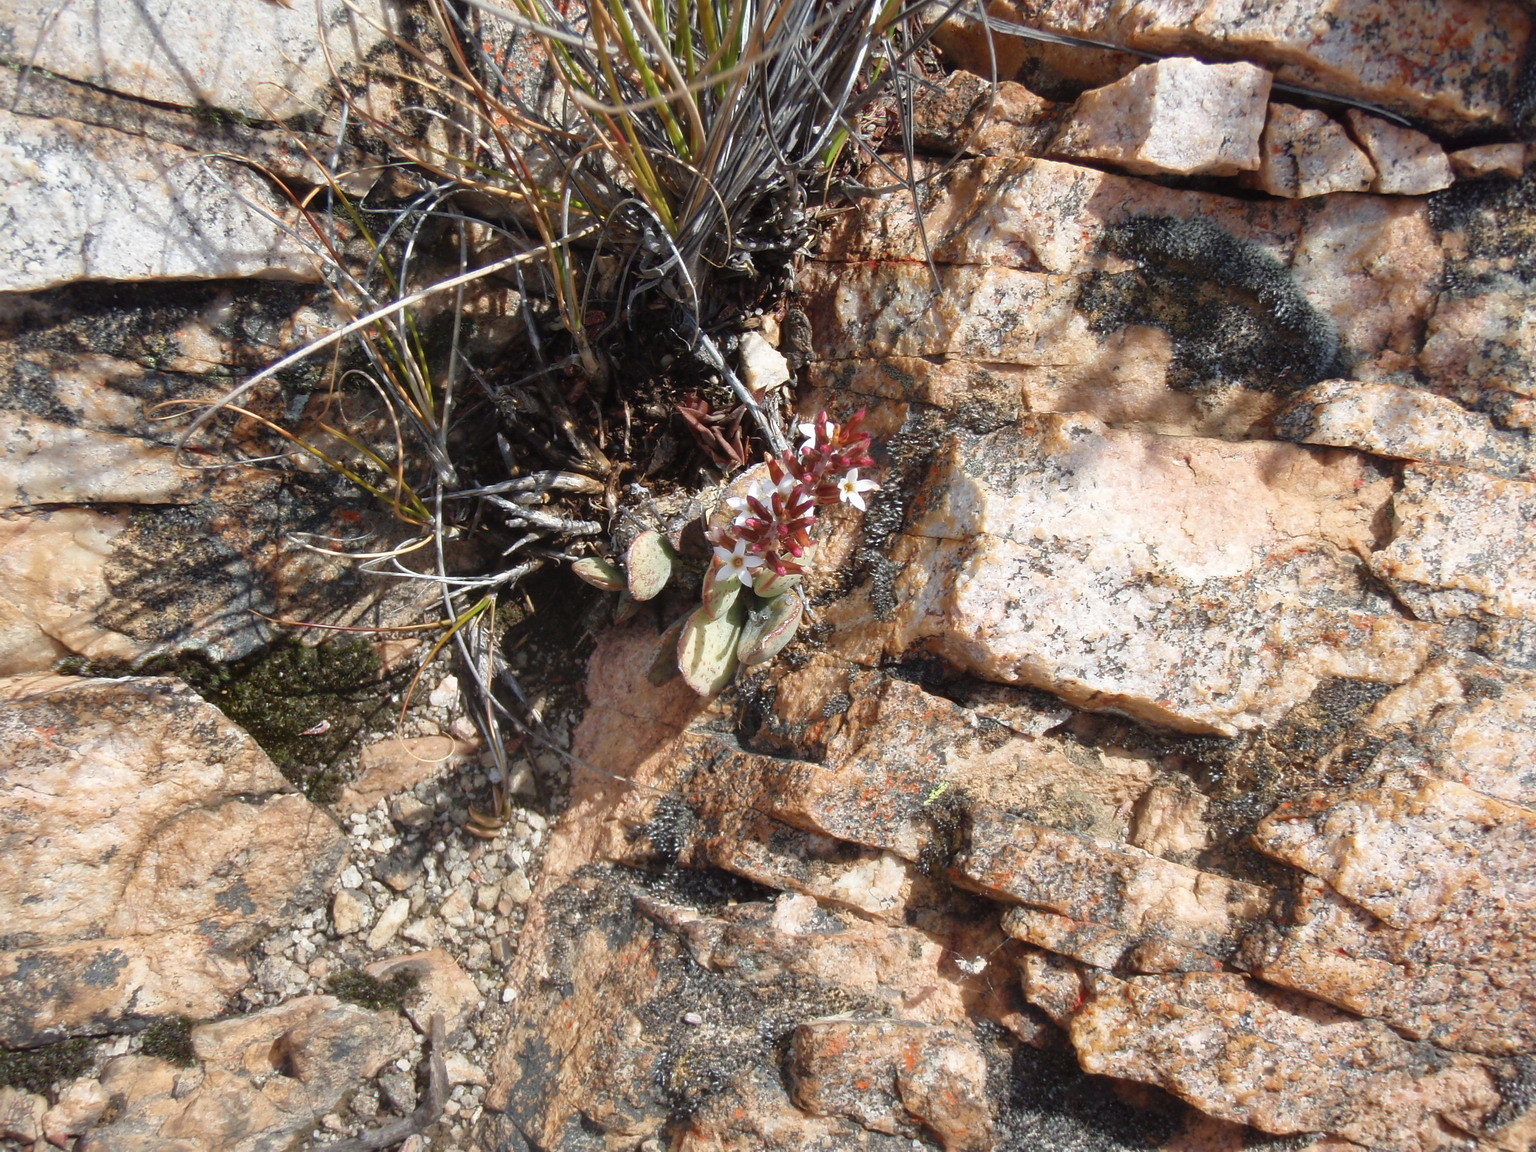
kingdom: Plantae
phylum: Tracheophyta
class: Magnoliopsida
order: Saxifragales
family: Crassulaceae
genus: Adromischus
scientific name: Adromischus triflorus
